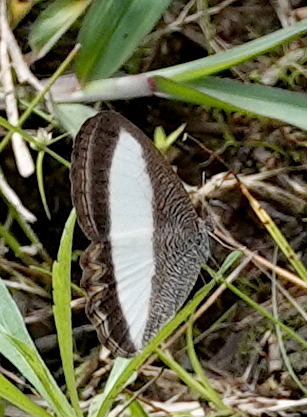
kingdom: Animalia
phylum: Arthropoda
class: Insecta
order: Lepidoptera
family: Nymphalidae
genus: Oressinoma
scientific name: Oressinoma typhla
